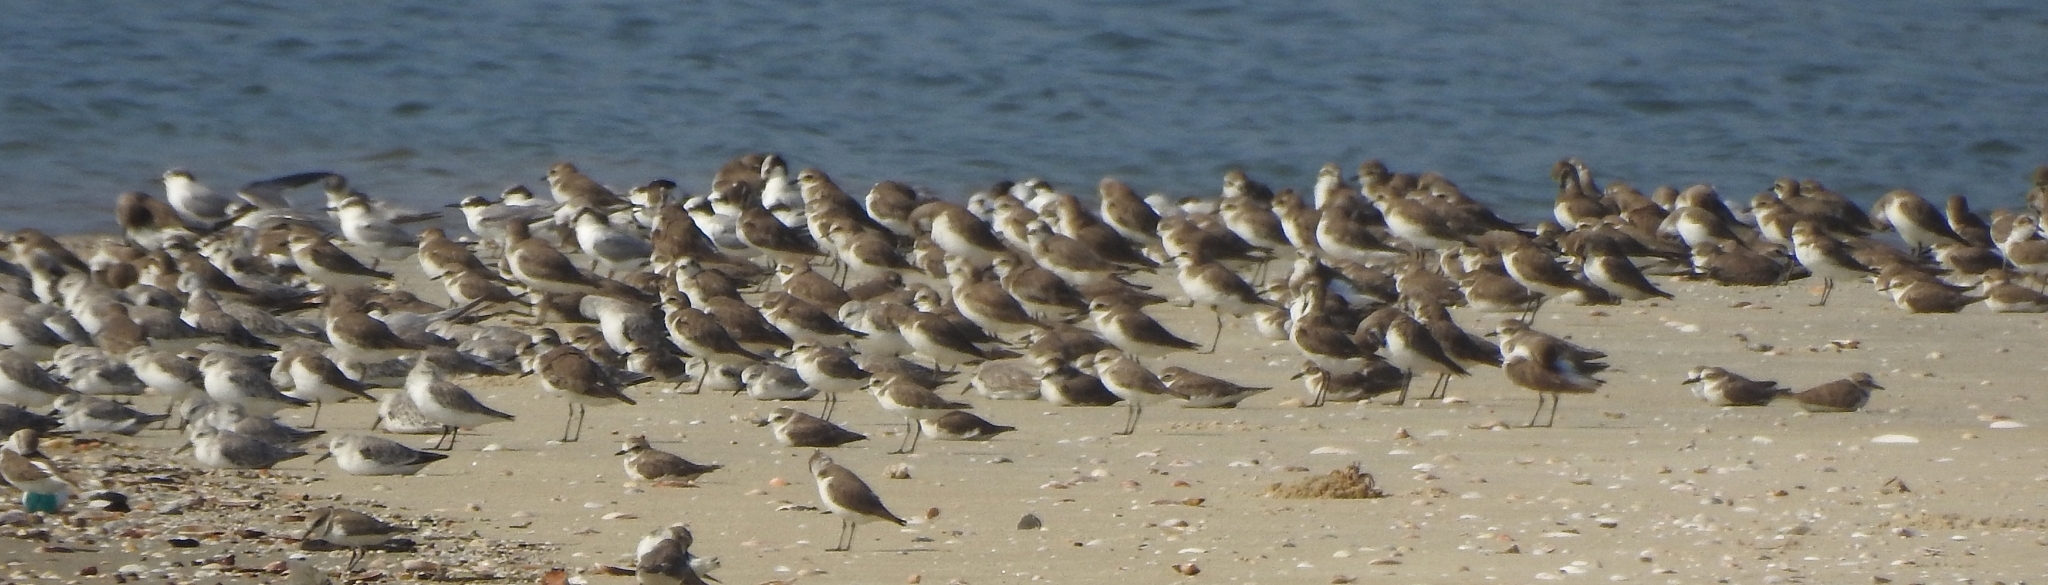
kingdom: Animalia
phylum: Chordata
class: Aves
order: Charadriiformes
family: Charadriidae
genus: Anarhynchus
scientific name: Anarhynchus
